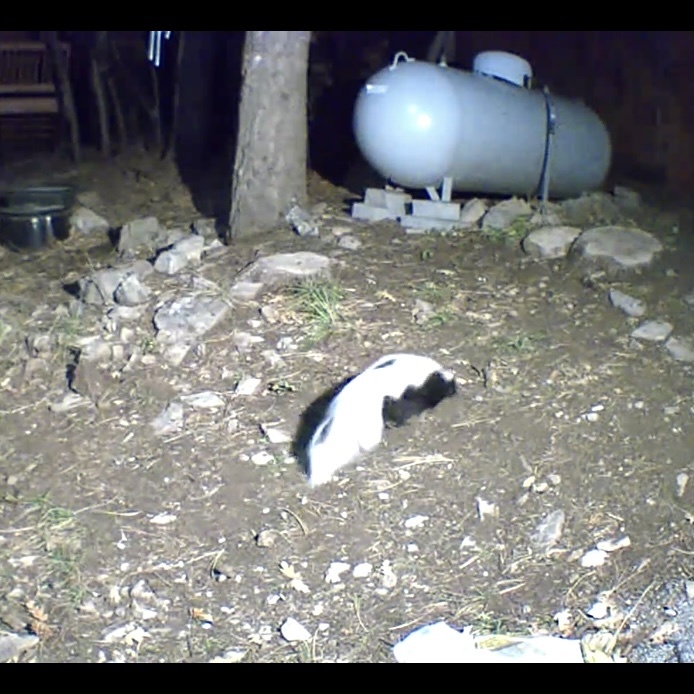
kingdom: Animalia
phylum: Chordata
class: Mammalia
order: Carnivora
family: Mephitidae
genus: Mephitis
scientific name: Mephitis mephitis
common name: Striped skunk
